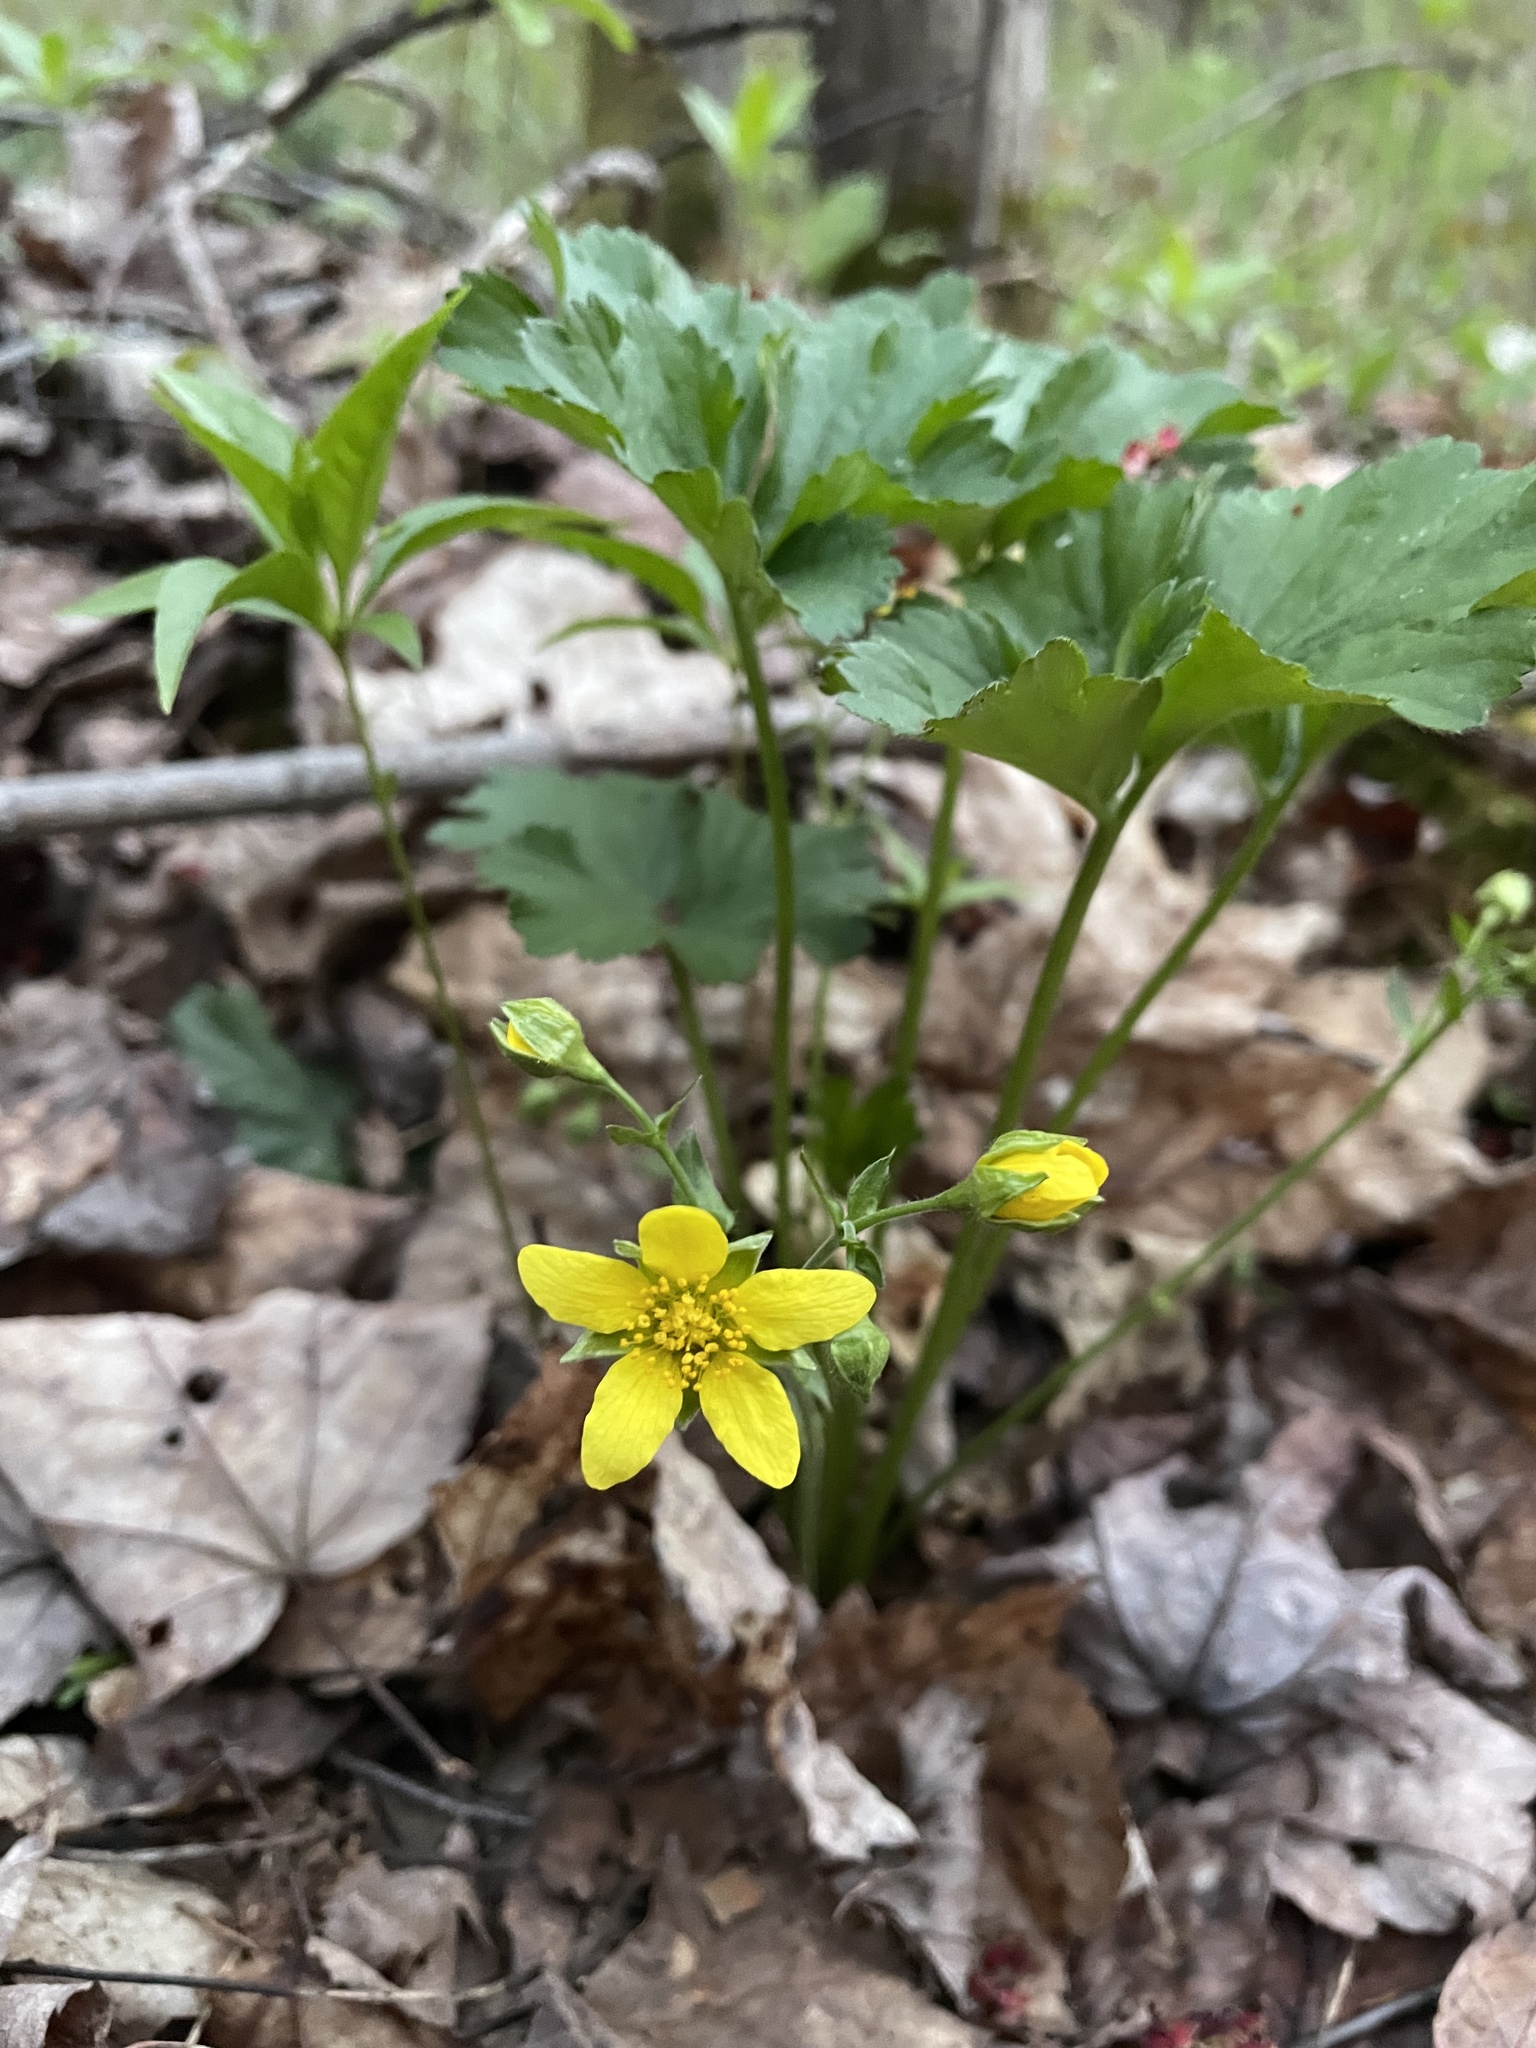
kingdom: Plantae
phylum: Tracheophyta
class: Magnoliopsida
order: Rosales
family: Rosaceae
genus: Geum
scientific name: Geum fragarioides
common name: Appalachian barren strawberry
